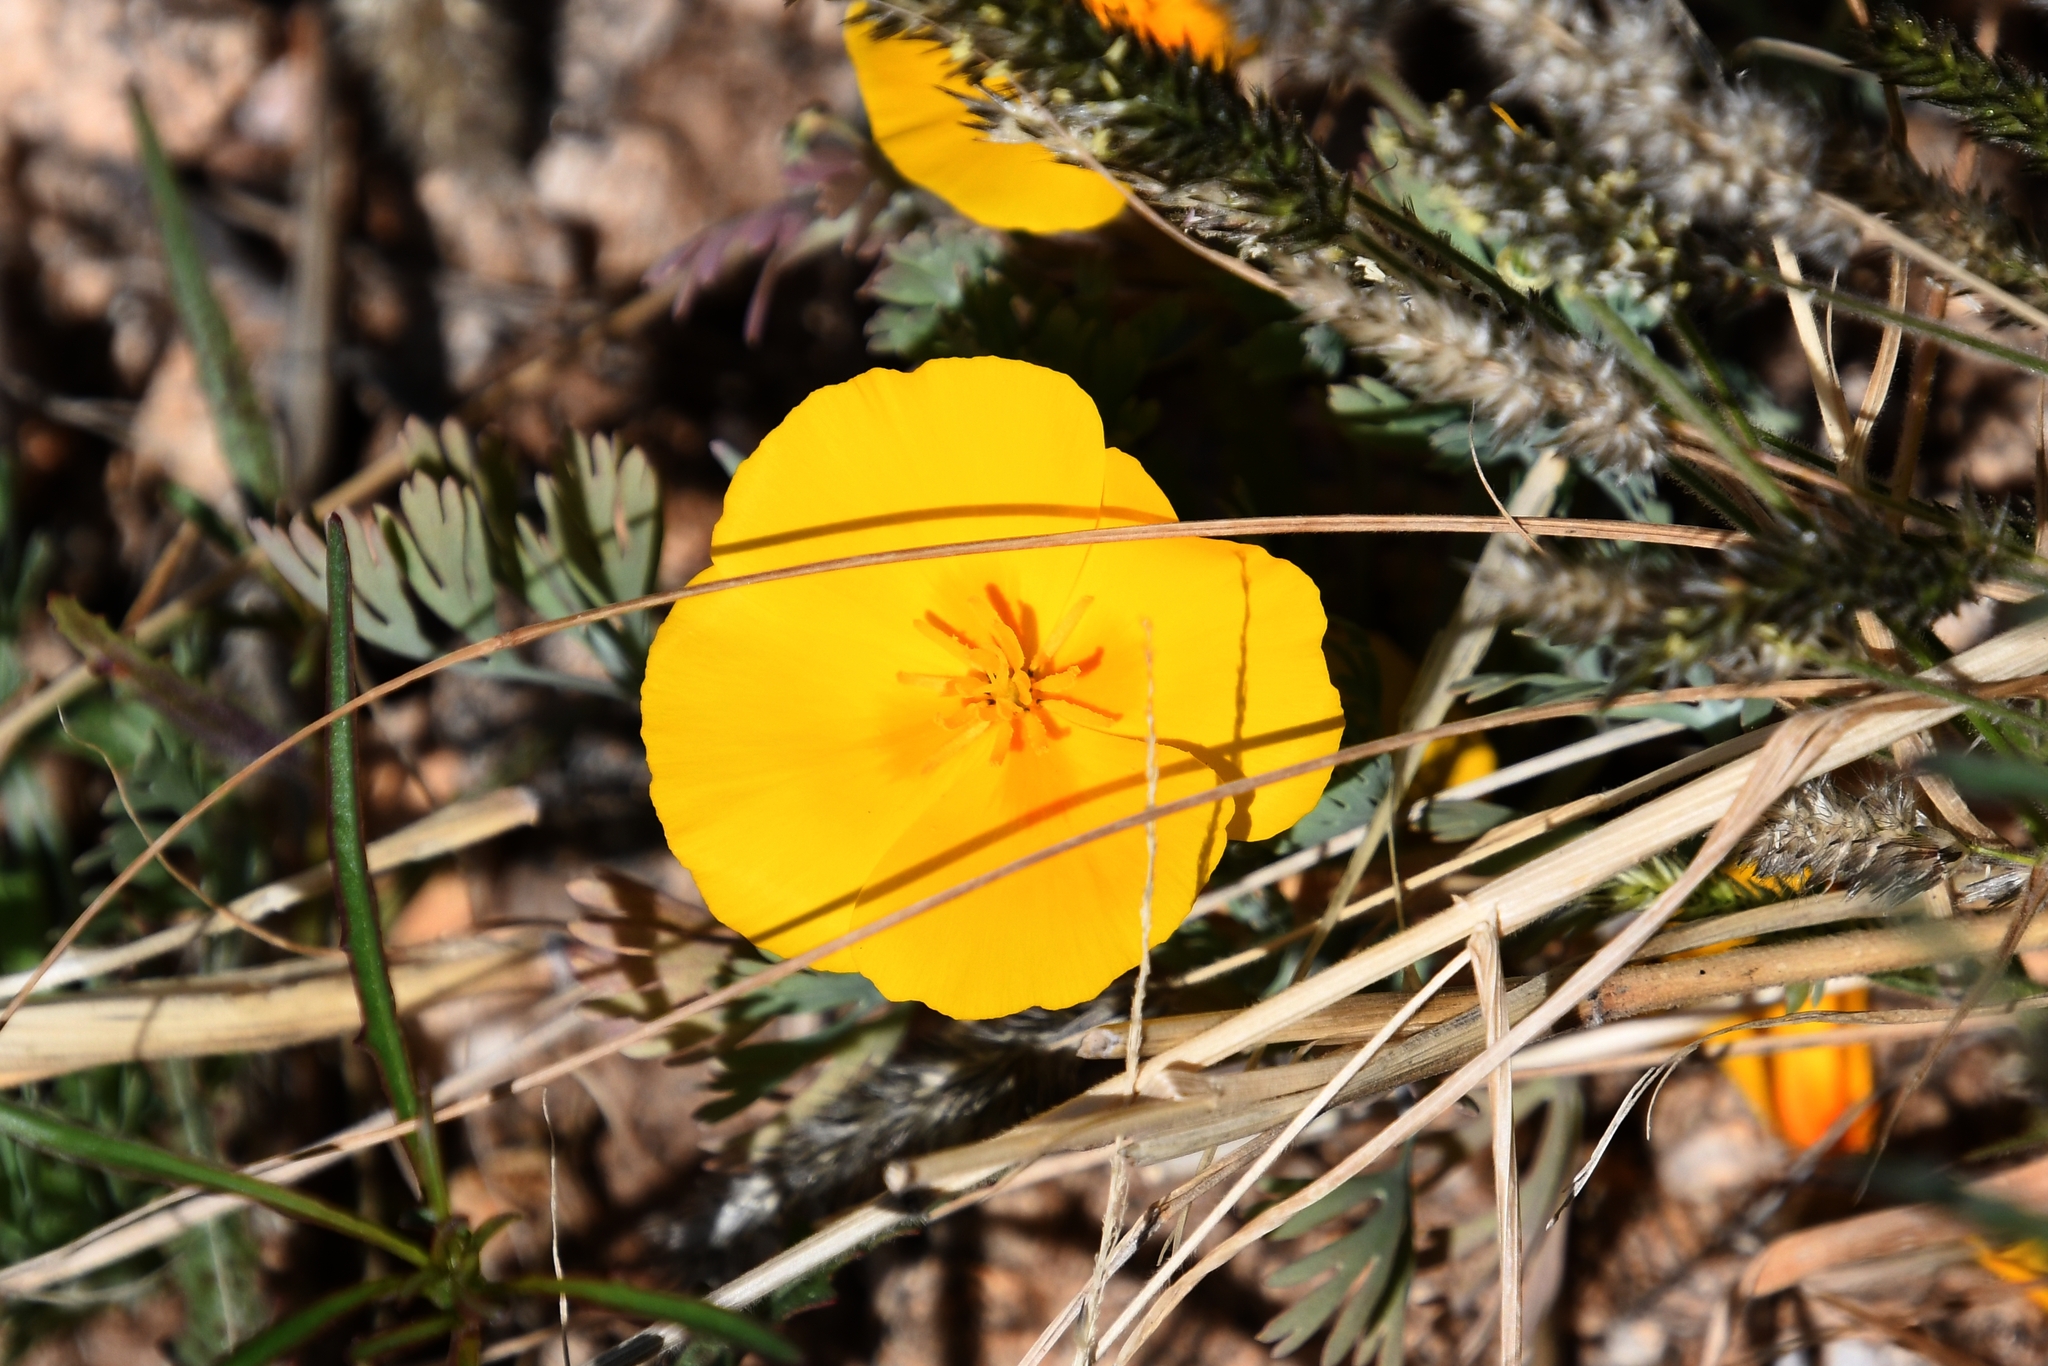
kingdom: Plantae
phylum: Tracheophyta
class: Magnoliopsida
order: Ranunculales
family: Papaveraceae
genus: Eschscholzia
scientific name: Eschscholzia californica
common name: California poppy
